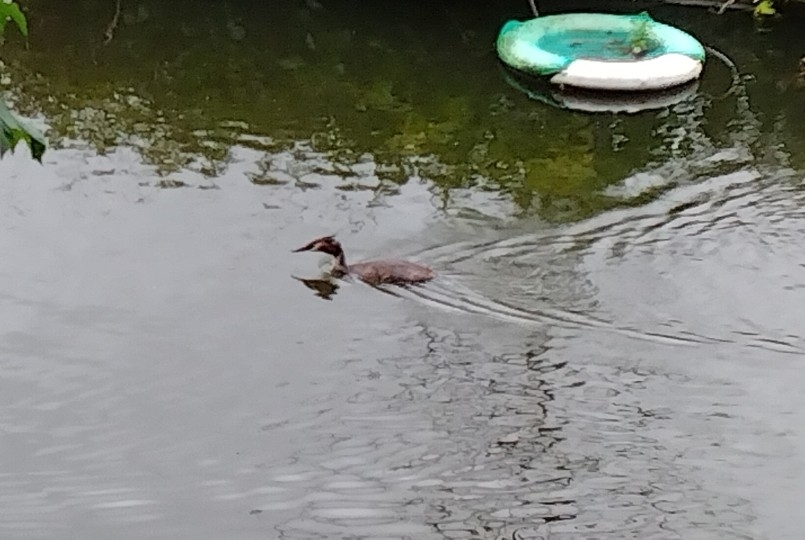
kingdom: Animalia
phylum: Chordata
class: Aves
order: Podicipediformes
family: Podicipedidae
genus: Podiceps
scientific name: Podiceps cristatus
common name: Great crested grebe
